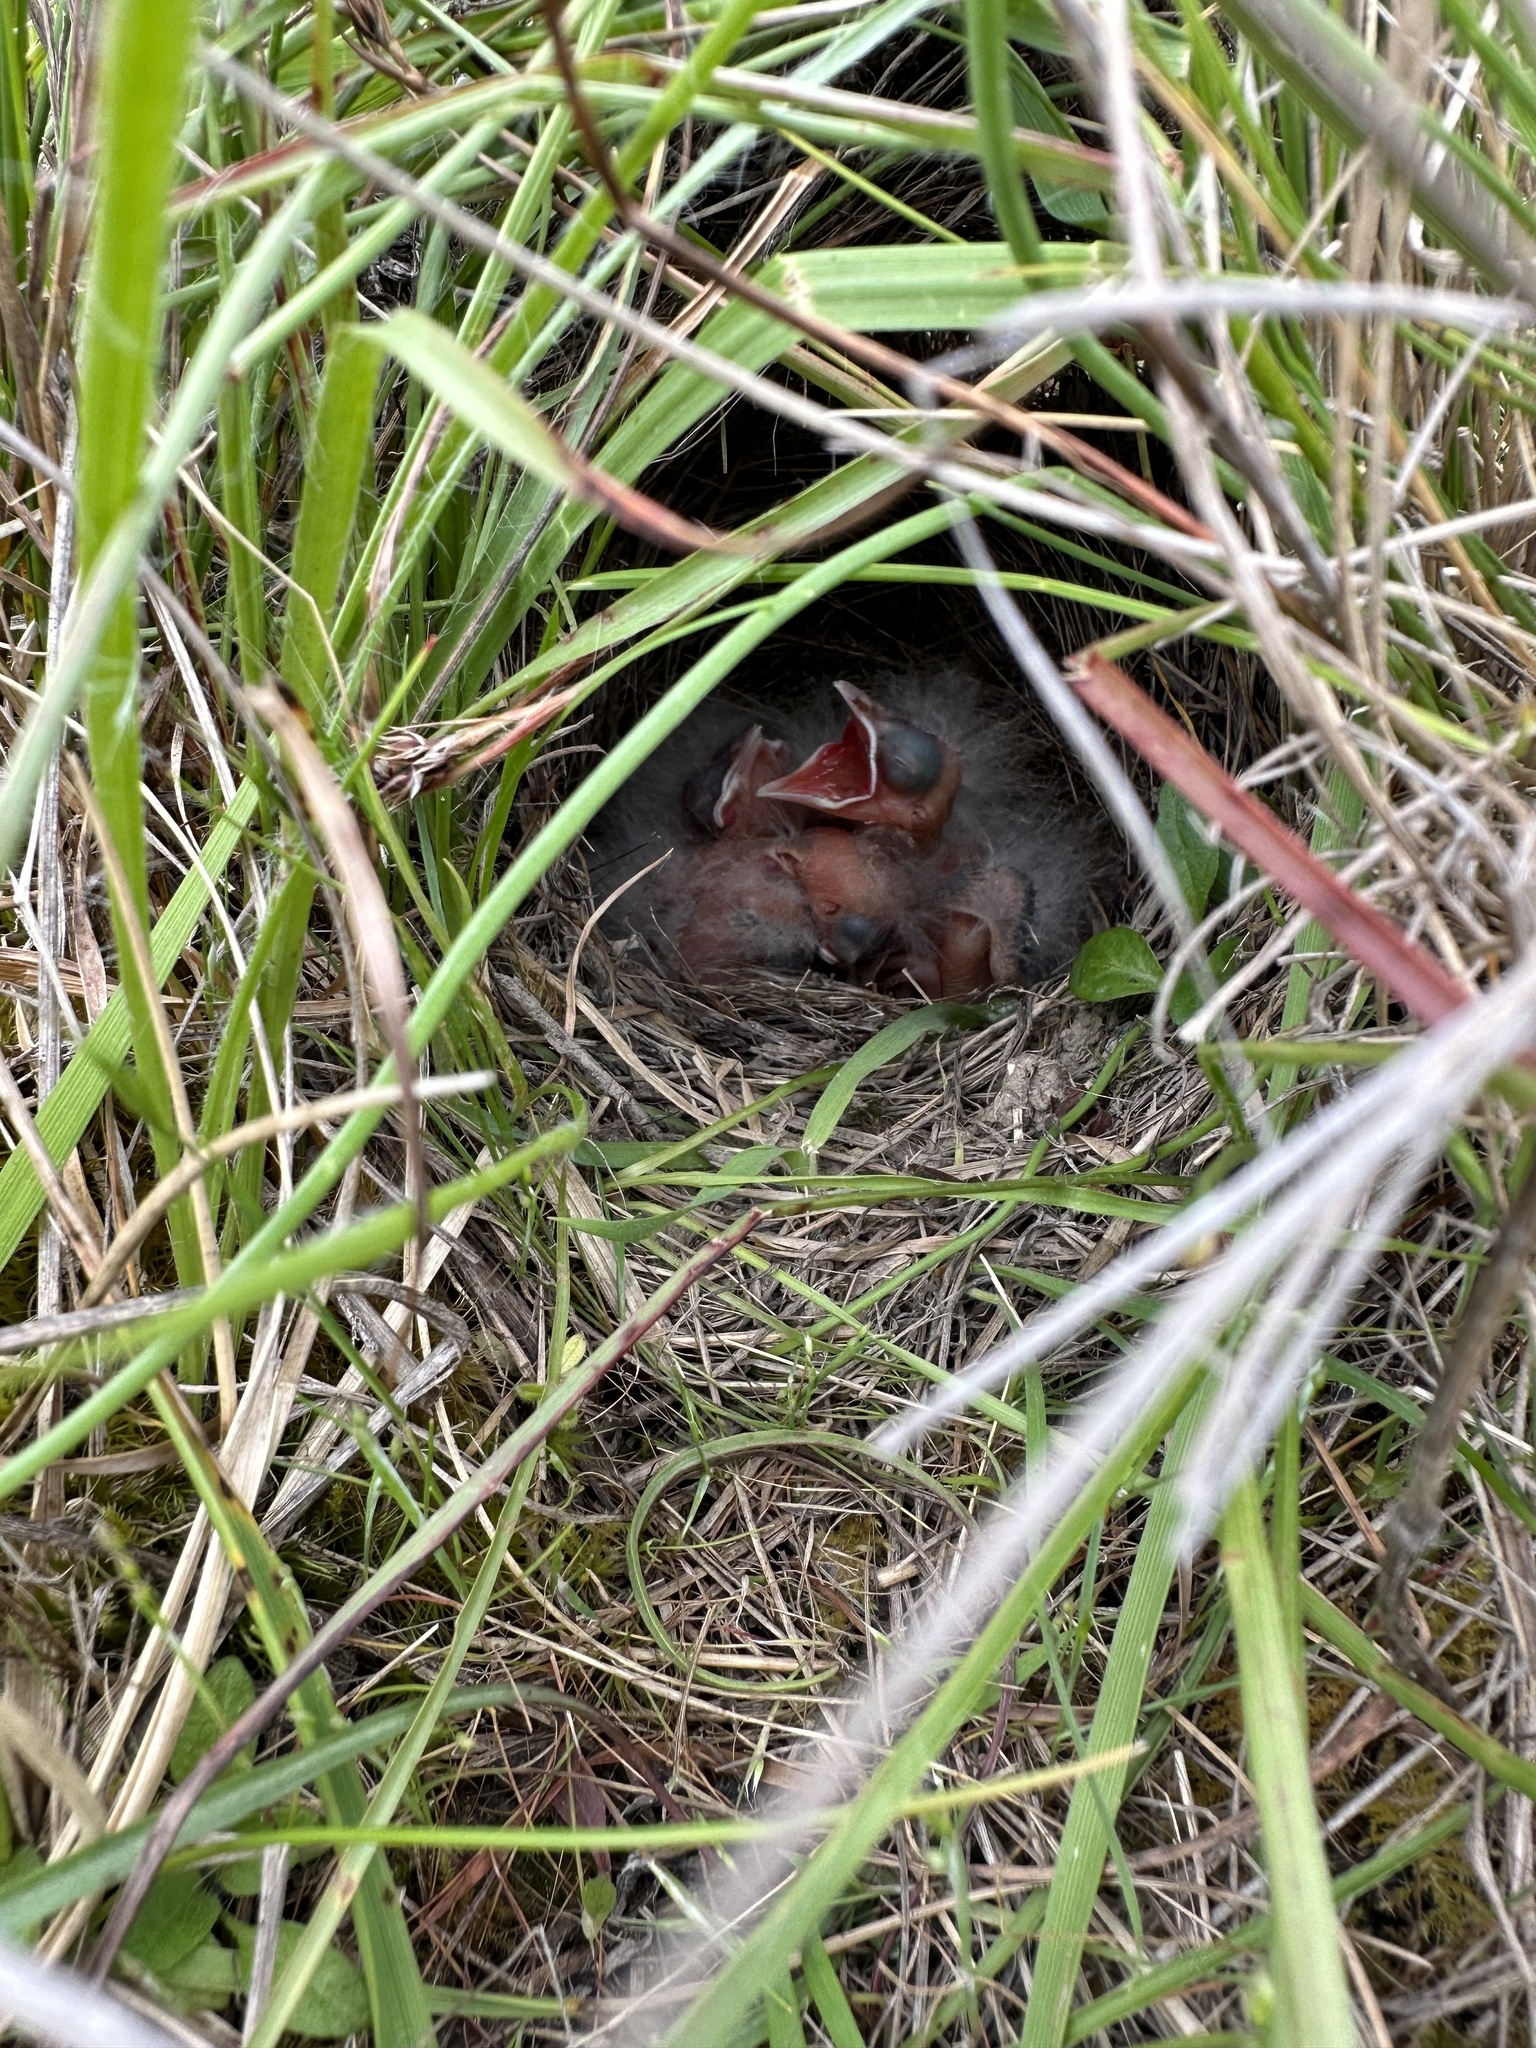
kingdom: Animalia
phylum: Chordata
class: Aves
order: Passeriformes
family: Icteridae
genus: Sturnella
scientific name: Sturnella neglecta
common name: Western meadowlark
